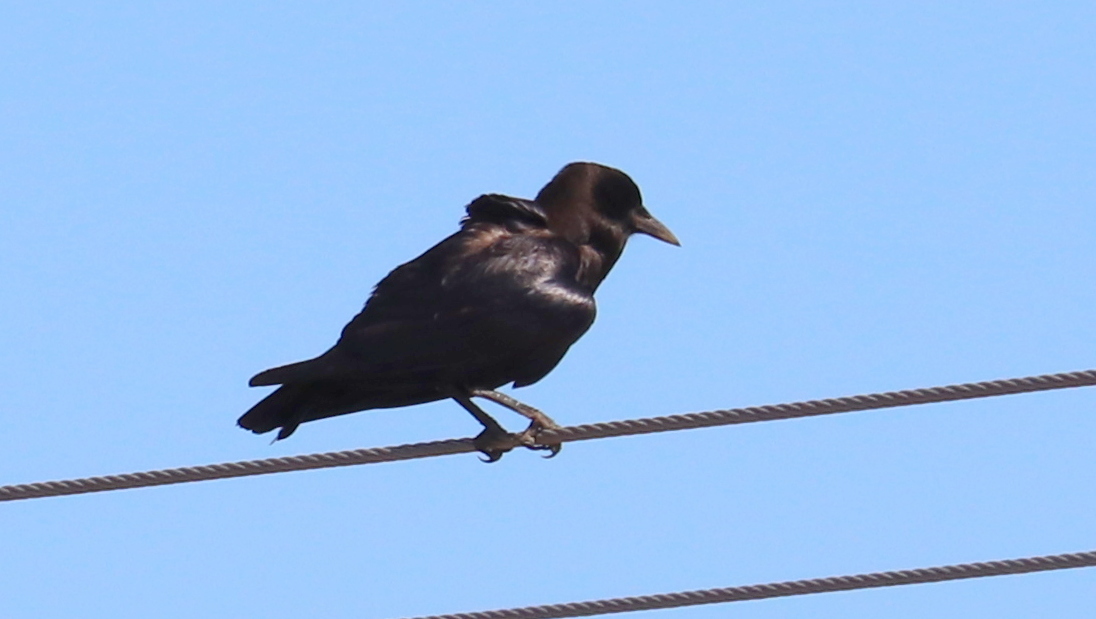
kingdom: Animalia
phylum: Chordata
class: Aves
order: Passeriformes
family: Corvidae
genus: Corvus
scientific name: Corvus capensis
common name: Cape crow
